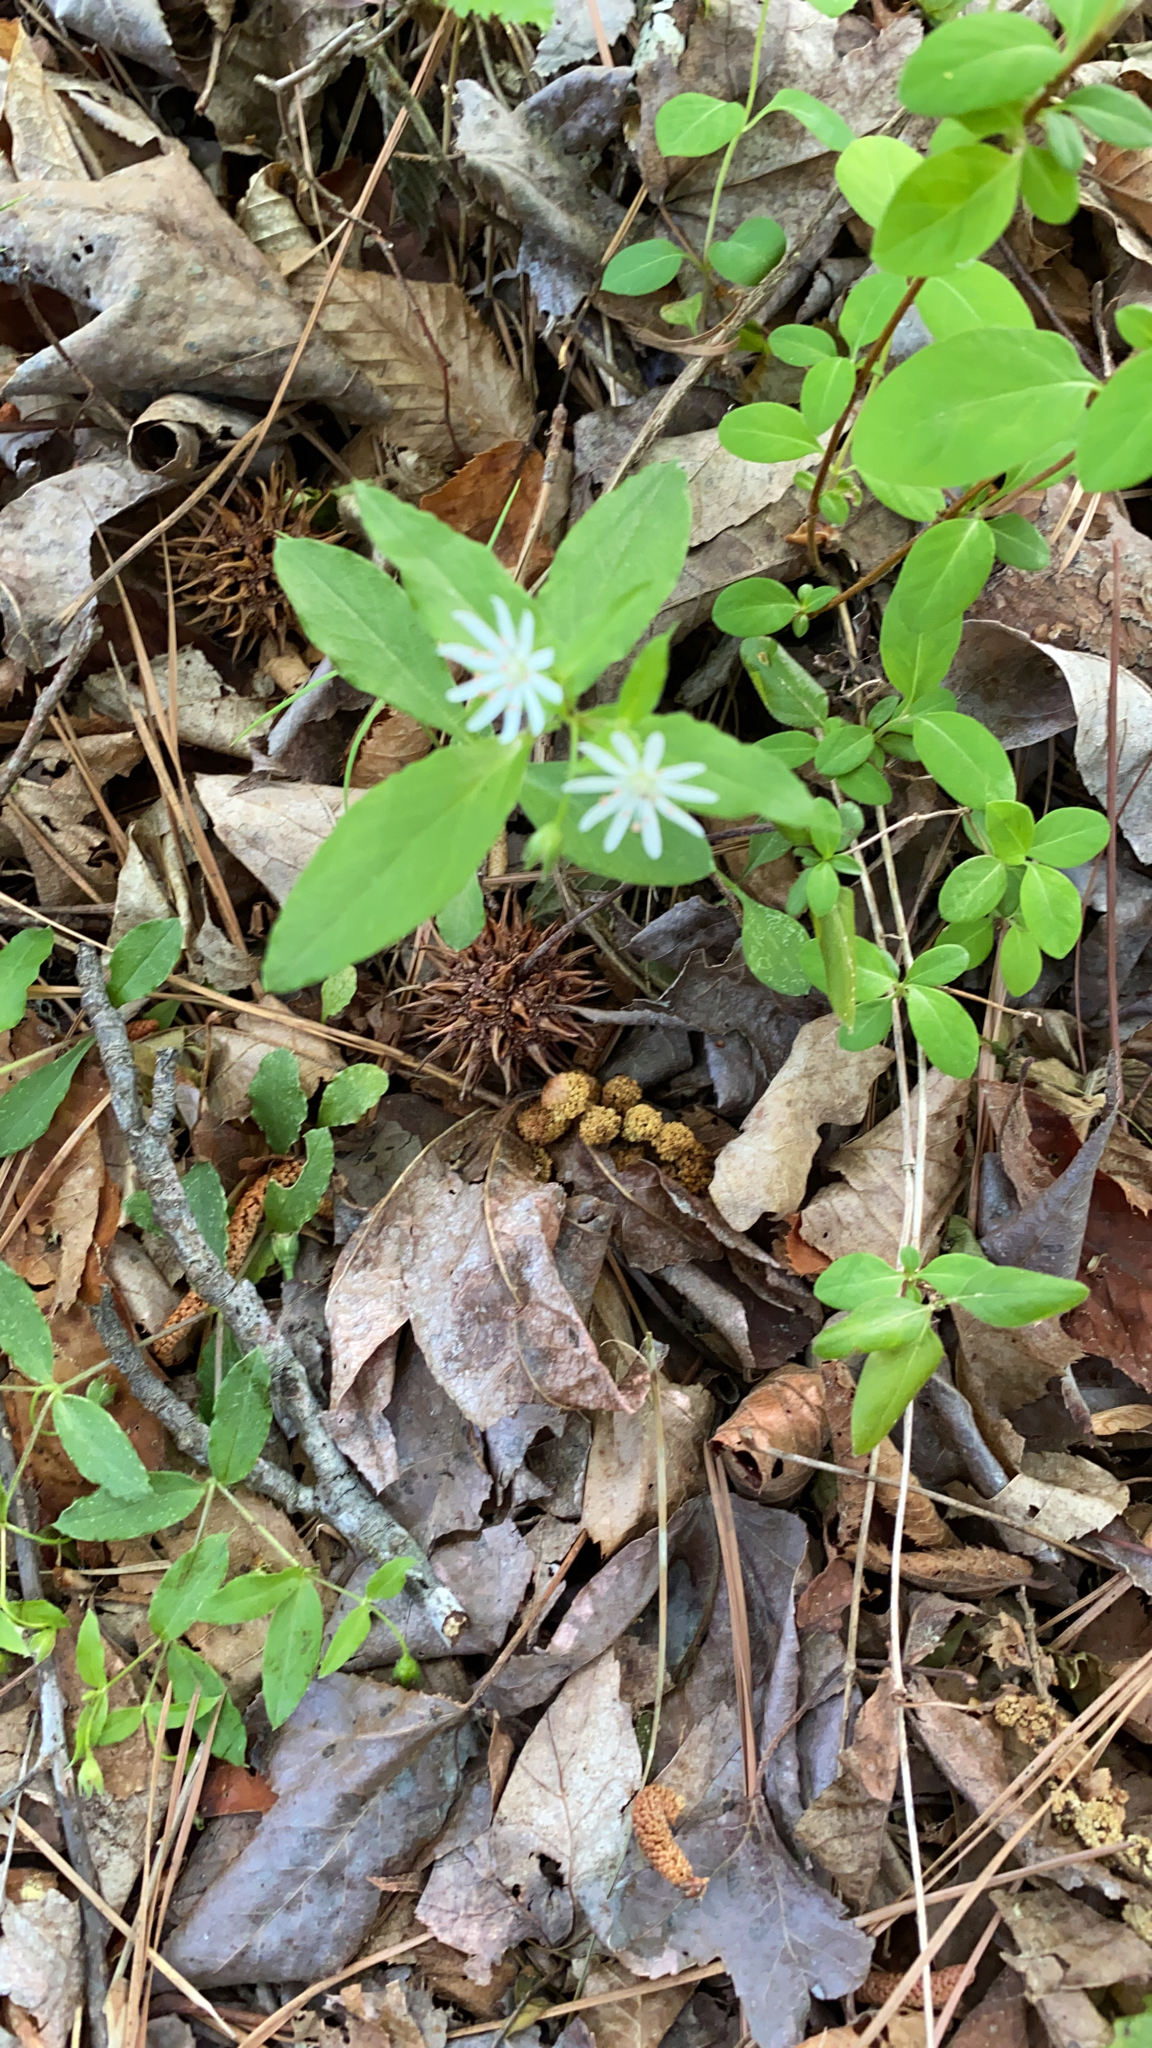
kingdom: Plantae
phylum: Tracheophyta
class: Magnoliopsida
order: Caryophyllales
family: Caryophyllaceae
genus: Stellaria
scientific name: Stellaria pubera
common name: Star chickweed
